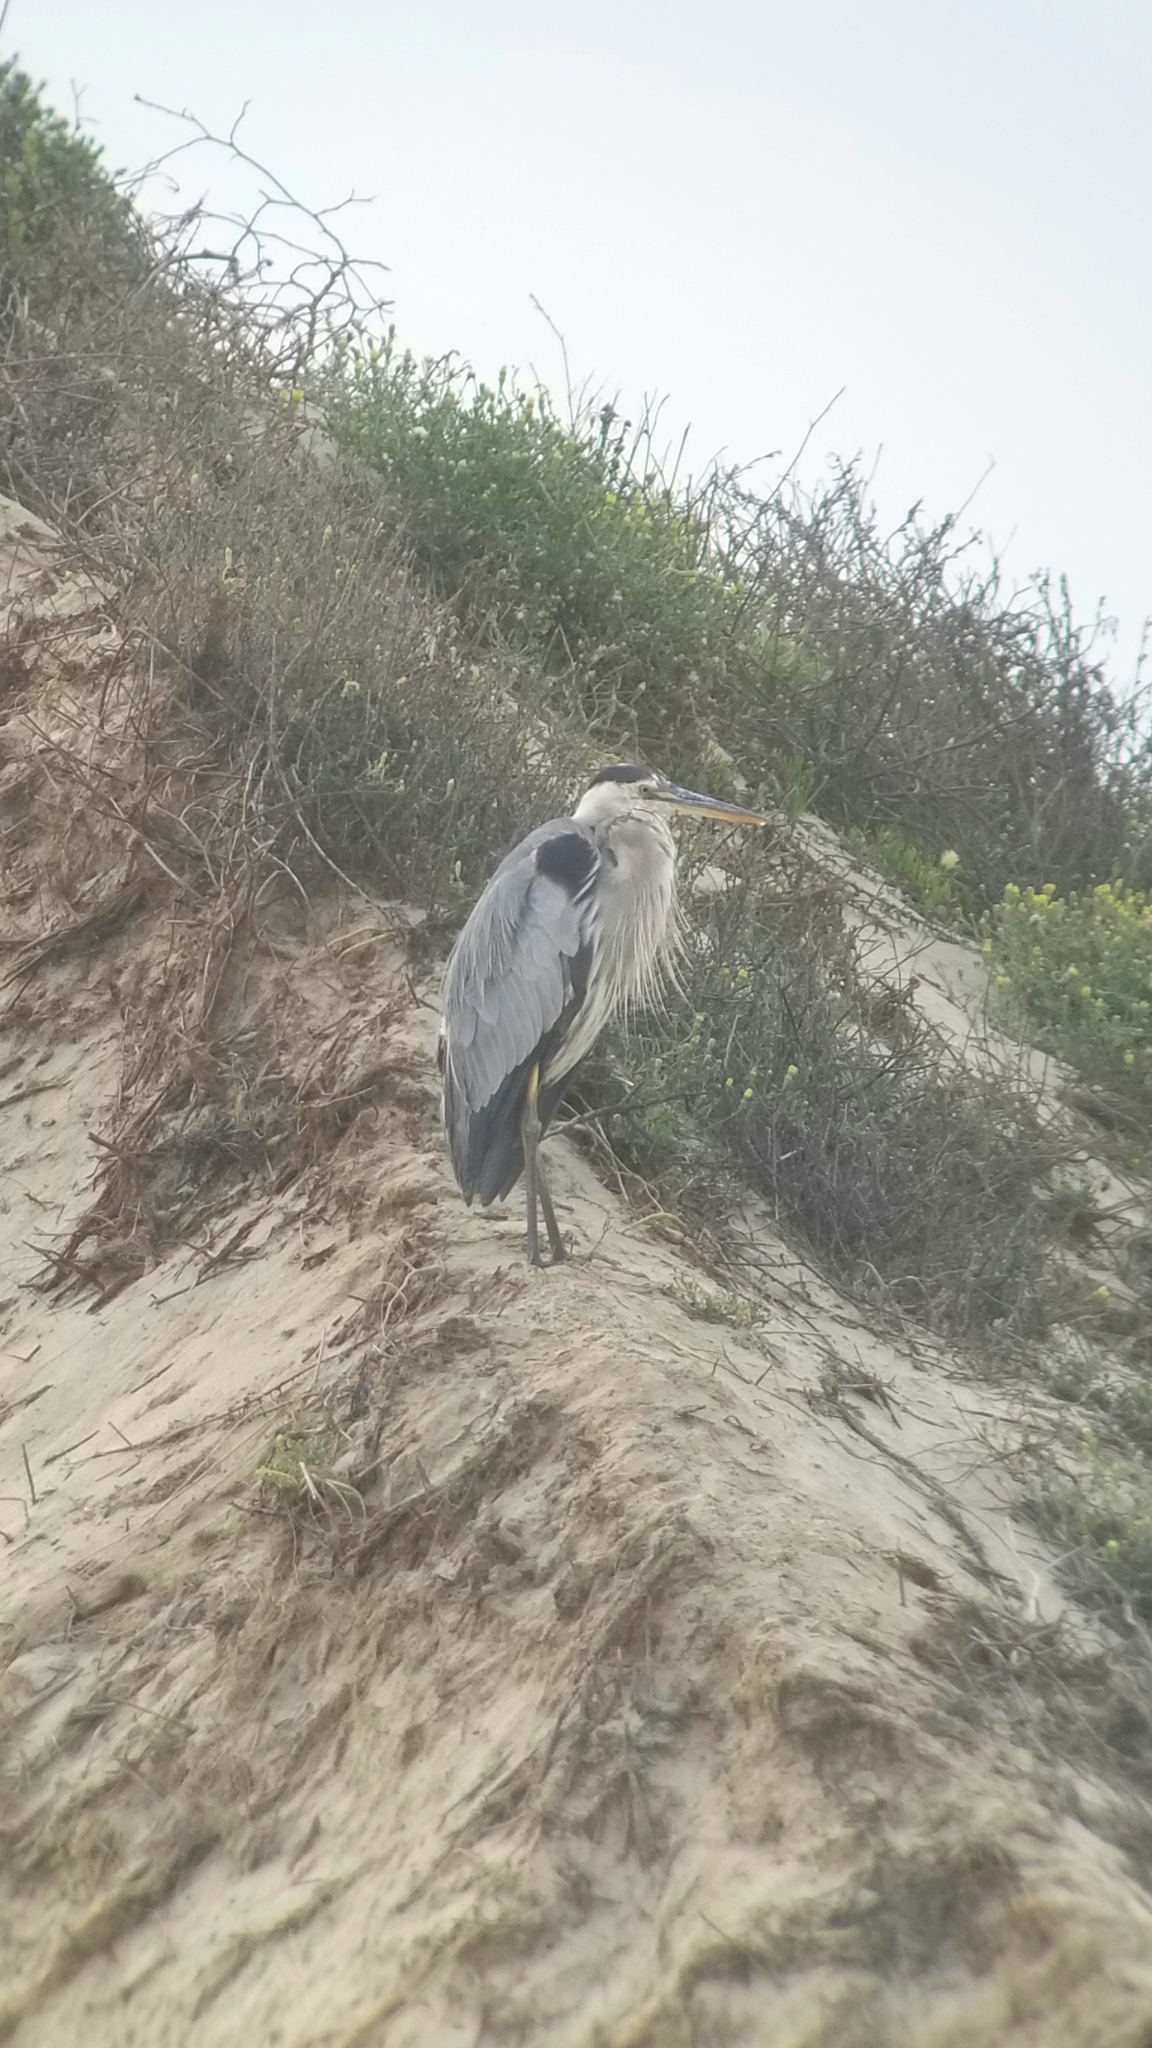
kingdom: Animalia
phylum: Chordata
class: Aves
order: Pelecaniformes
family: Ardeidae
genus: Ardea
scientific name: Ardea herodias
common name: Great blue heron
